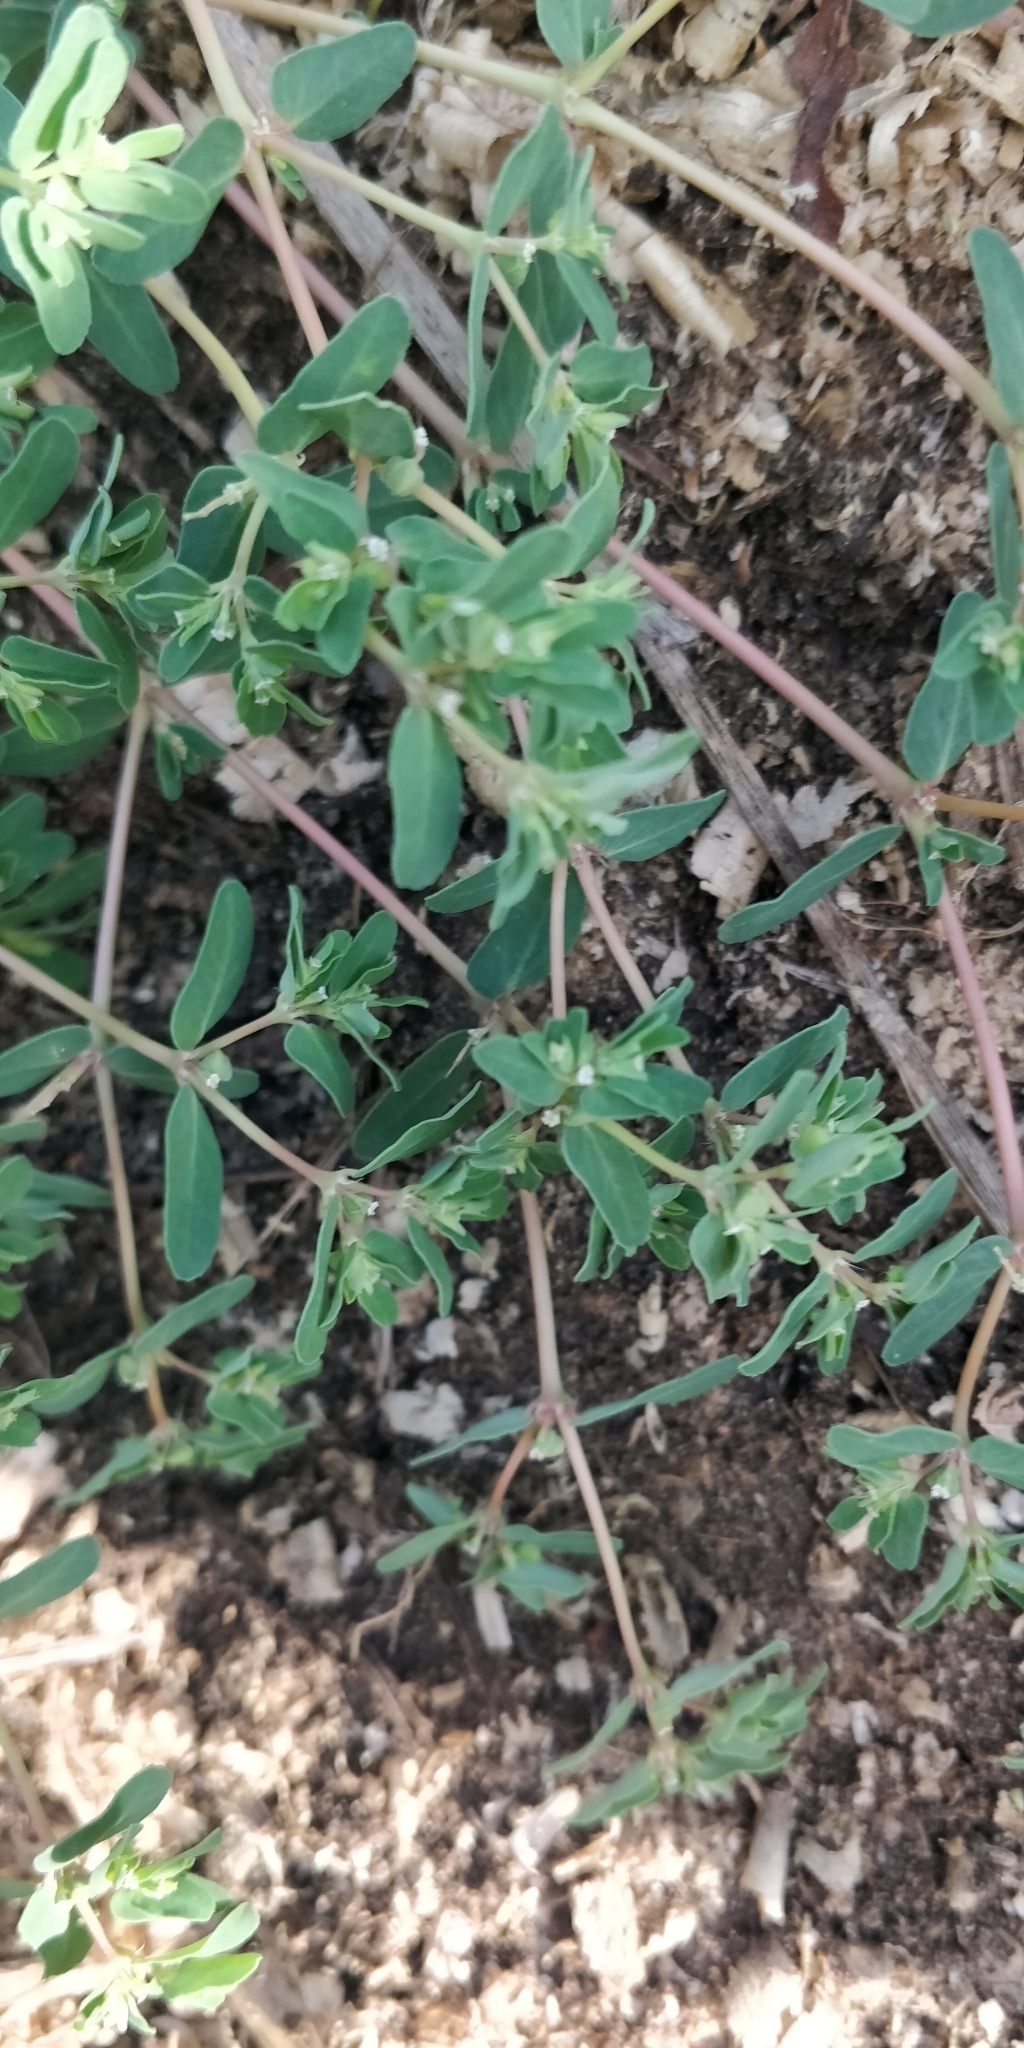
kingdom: Plantae
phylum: Tracheophyta
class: Magnoliopsida
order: Malpighiales
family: Euphorbiaceae
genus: Euphorbia
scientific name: Euphorbia glyptosperma
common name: Corrugate-seeded spurge
